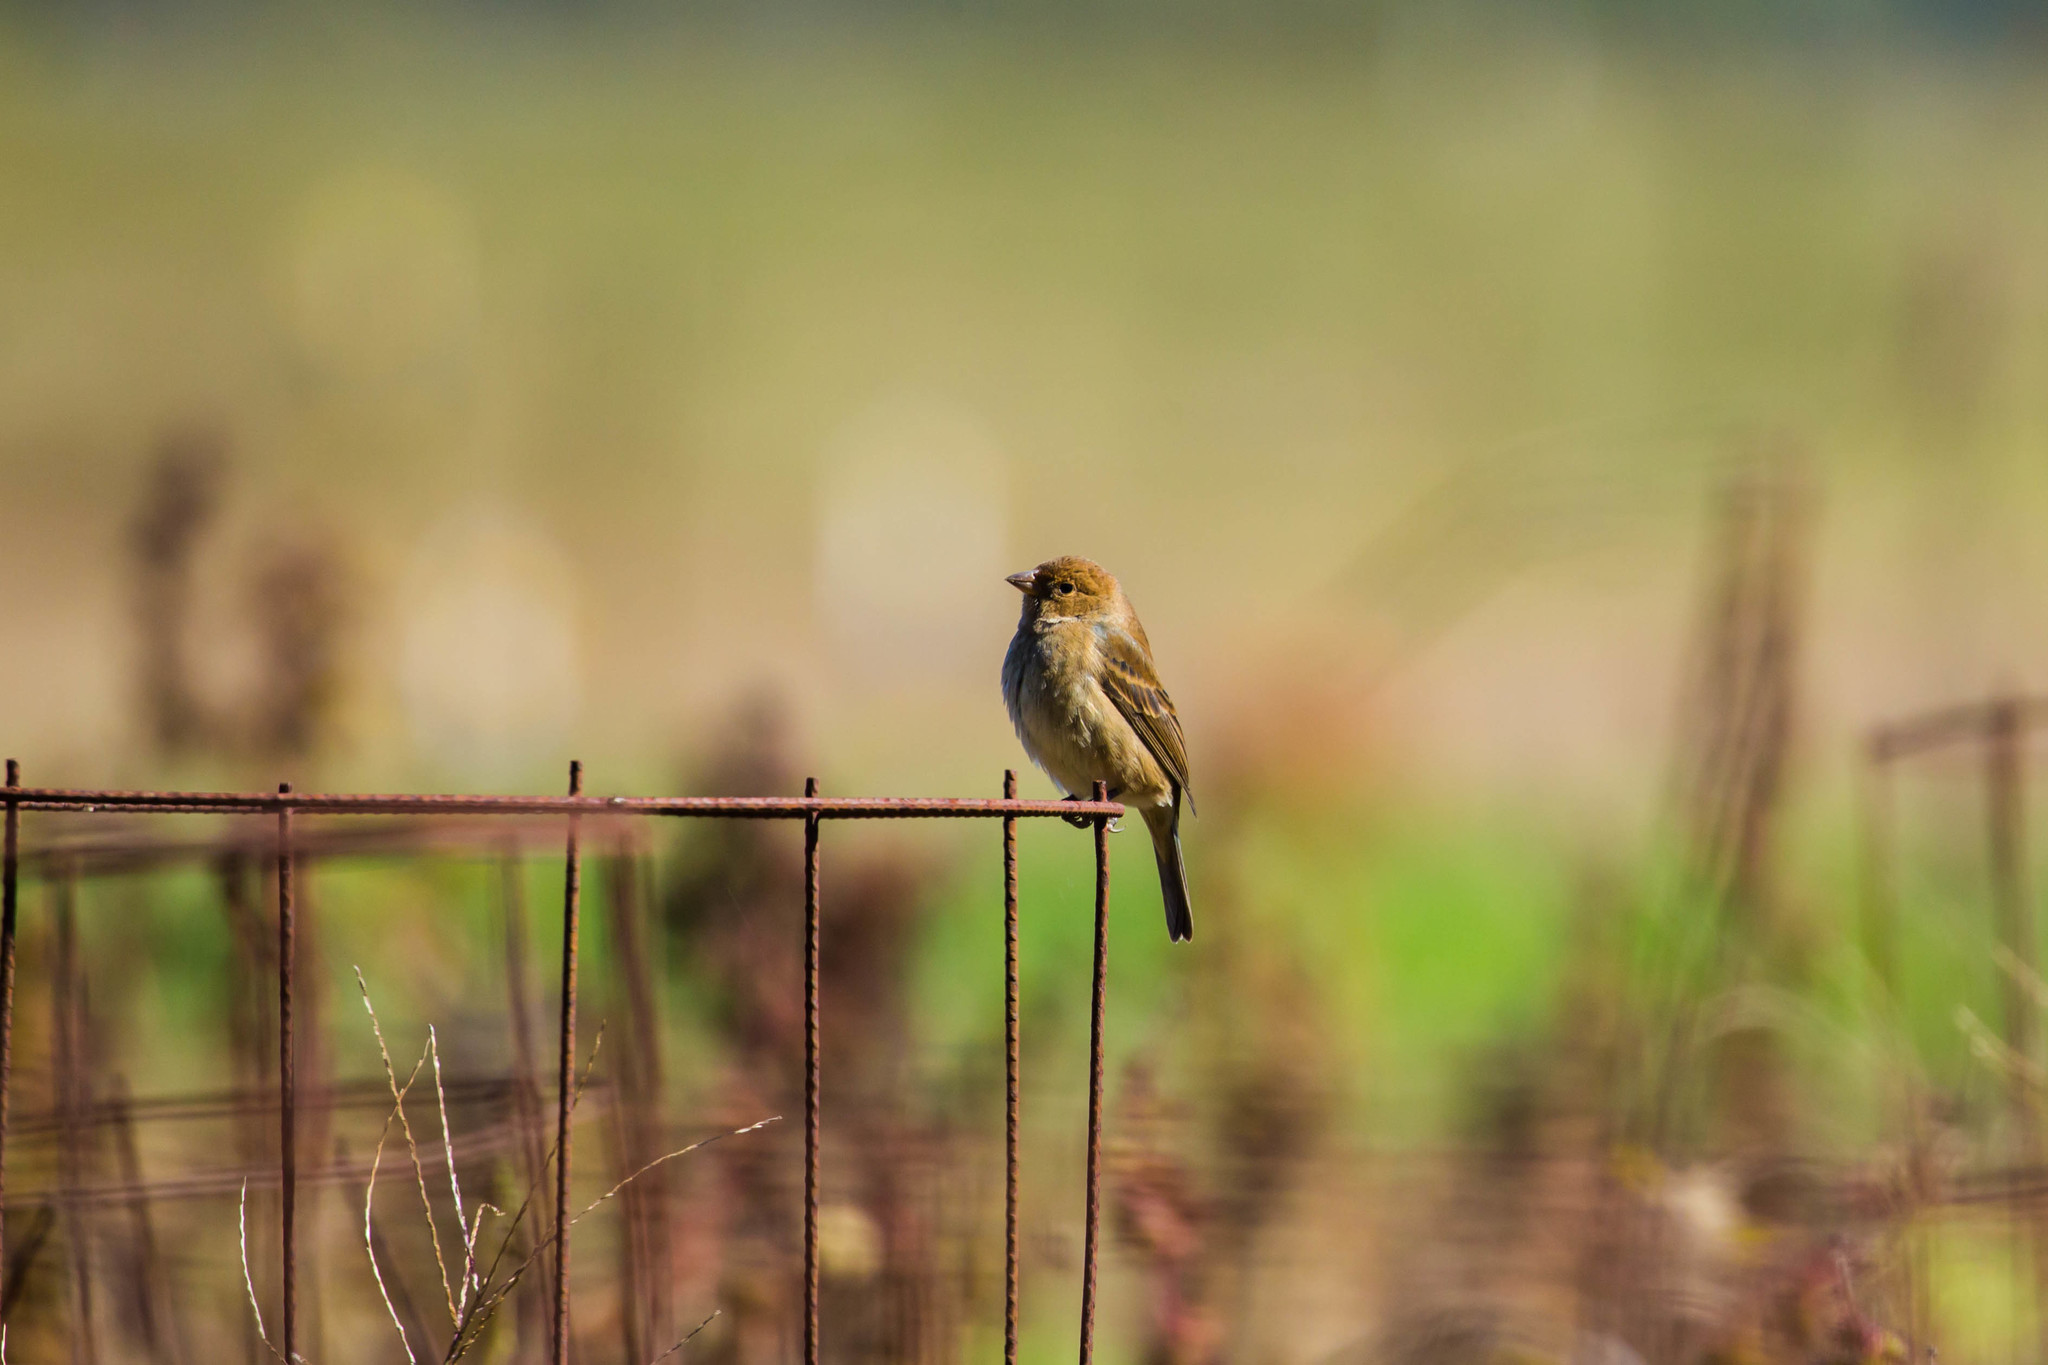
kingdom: Animalia
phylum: Chordata
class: Aves
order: Passeriformes
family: Cardinalidae
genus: Passerina
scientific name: Passerina cyanea
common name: Indigo bunting
